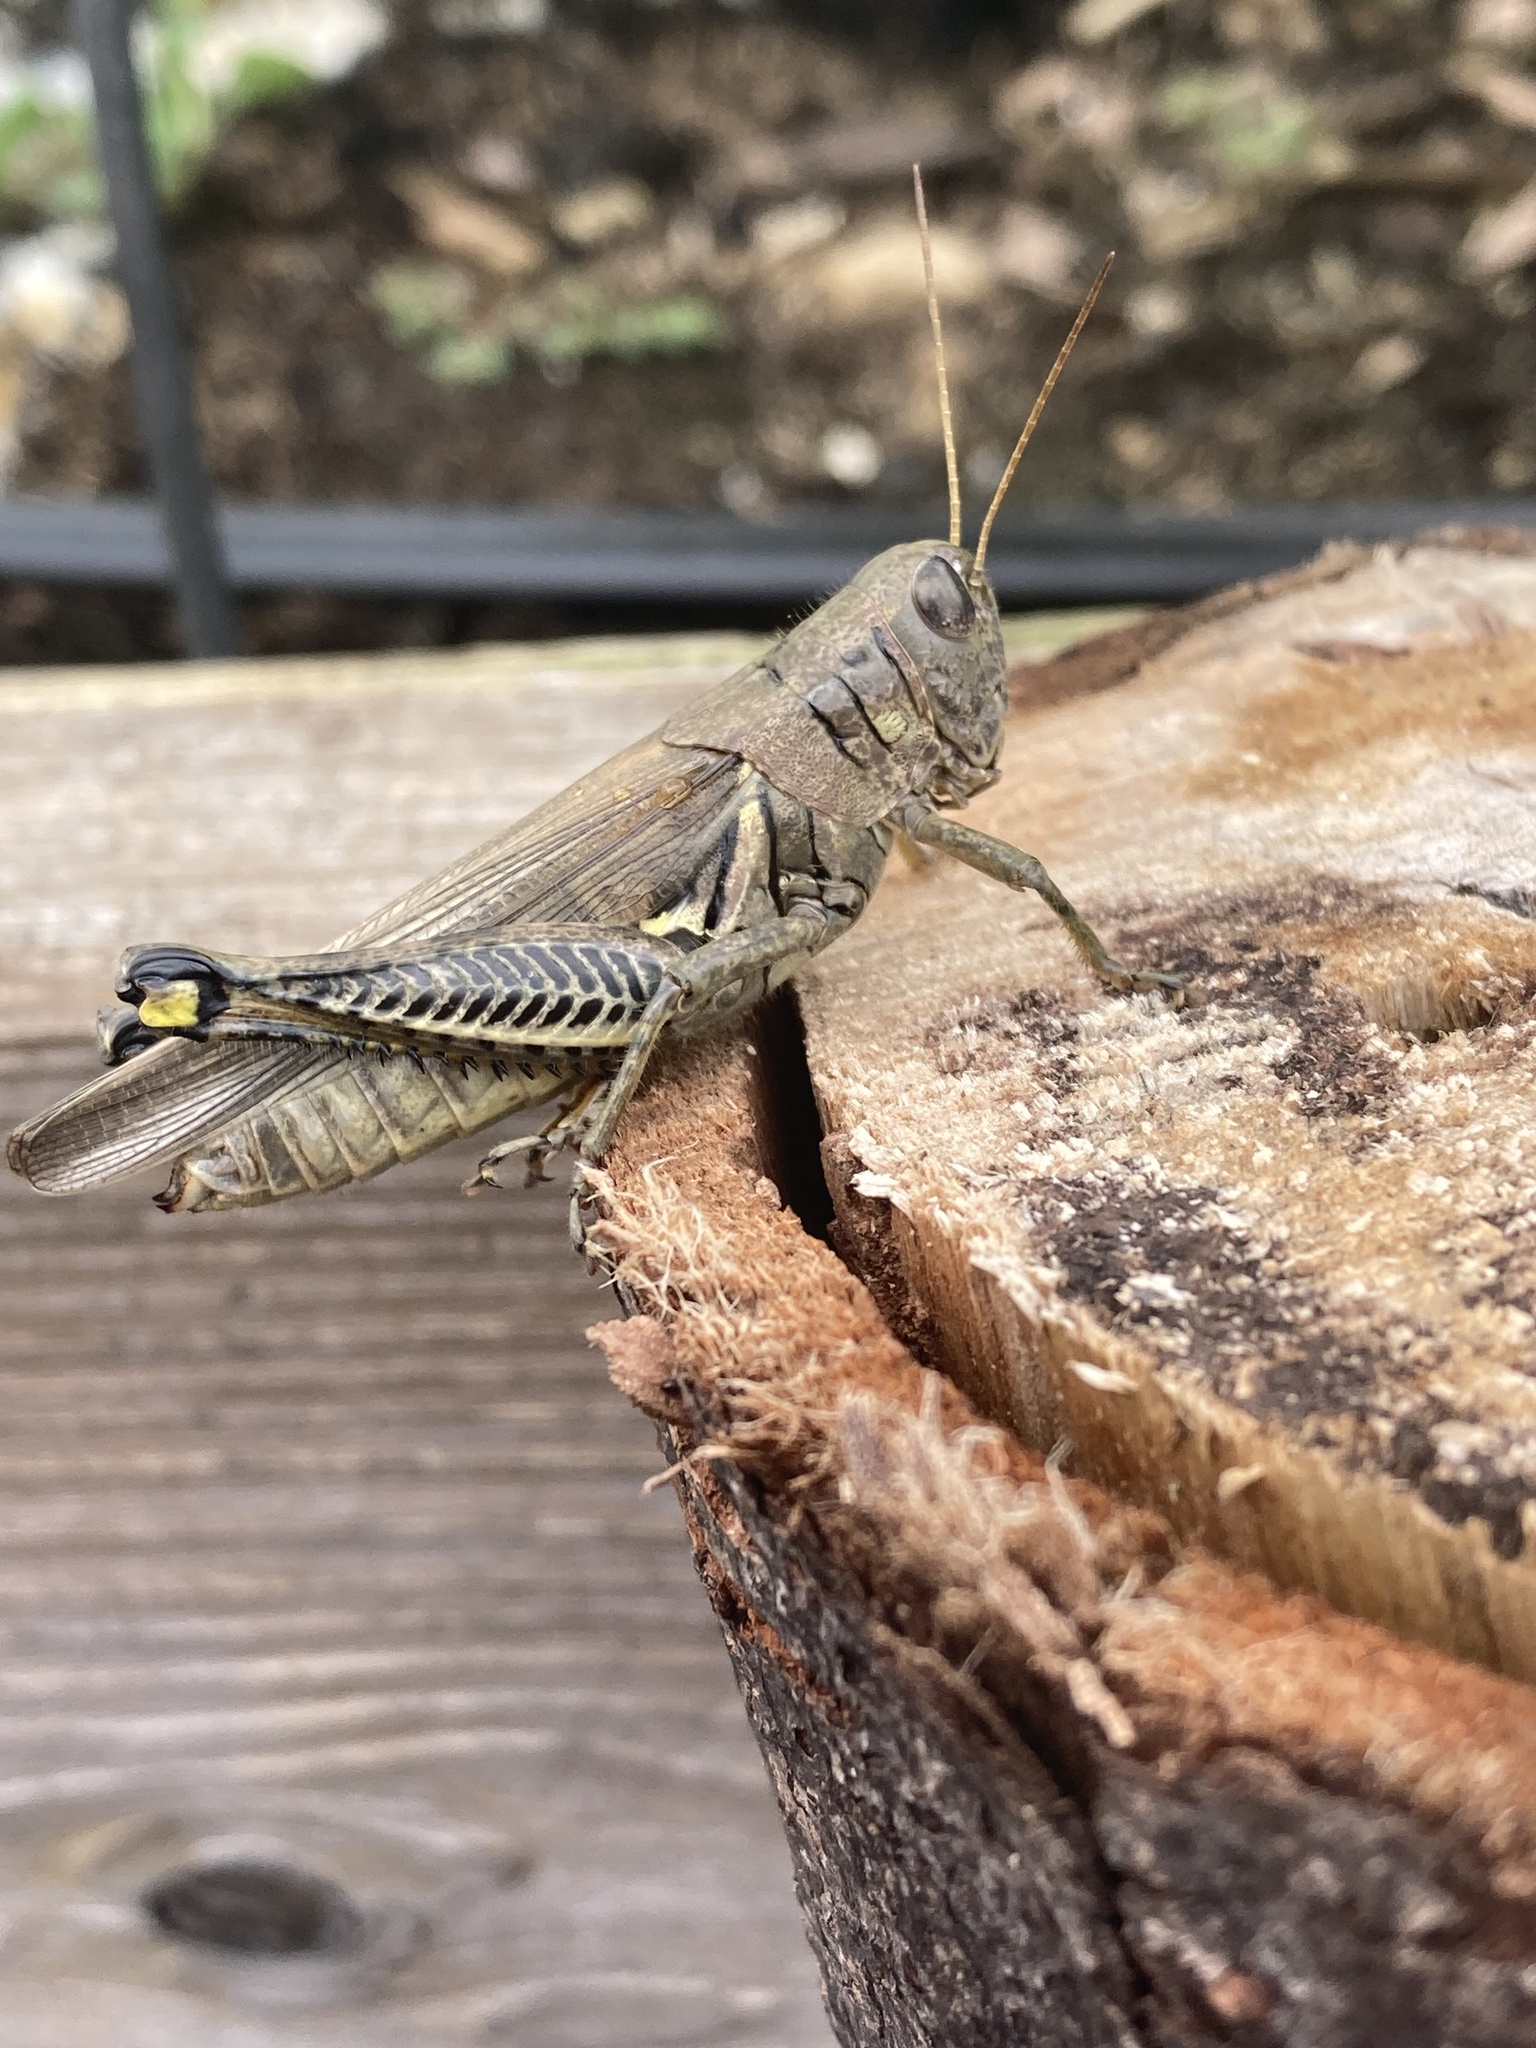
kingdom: Animalia
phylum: Arthropoda
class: Insecta
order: Orthoptera
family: Acrididae
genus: Melanoplus
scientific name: Melanoplus differentialis
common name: Differential grasshopper
